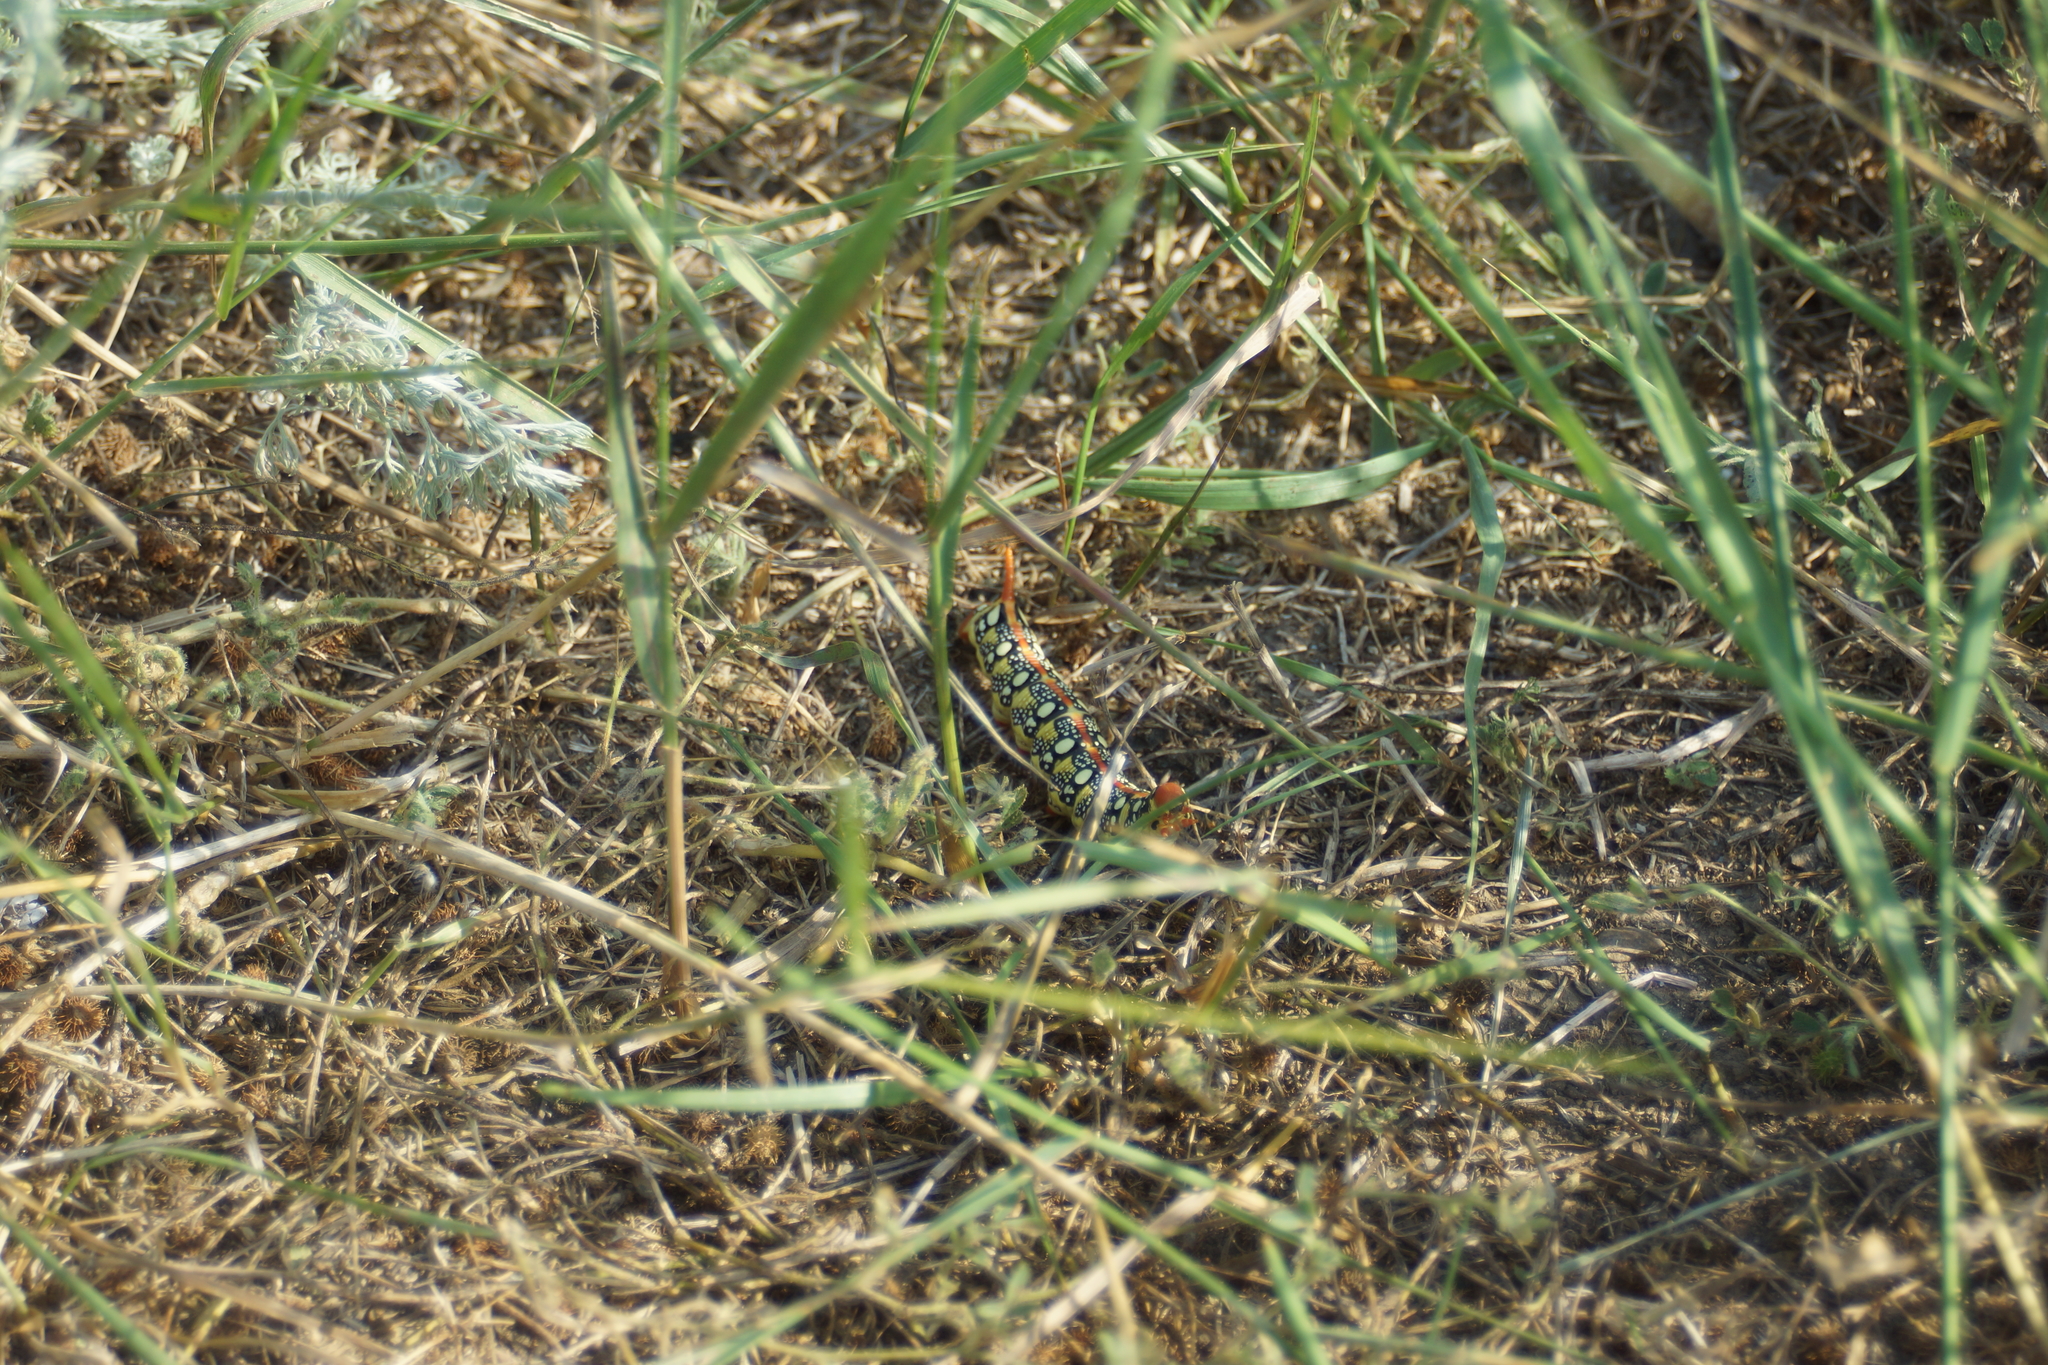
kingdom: Animalia
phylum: Arthropoda
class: Insecta
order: Lepidoptera
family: Sphingidae
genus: Hyles
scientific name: Hyles euphorbiae
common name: Spurge hawk-moth
